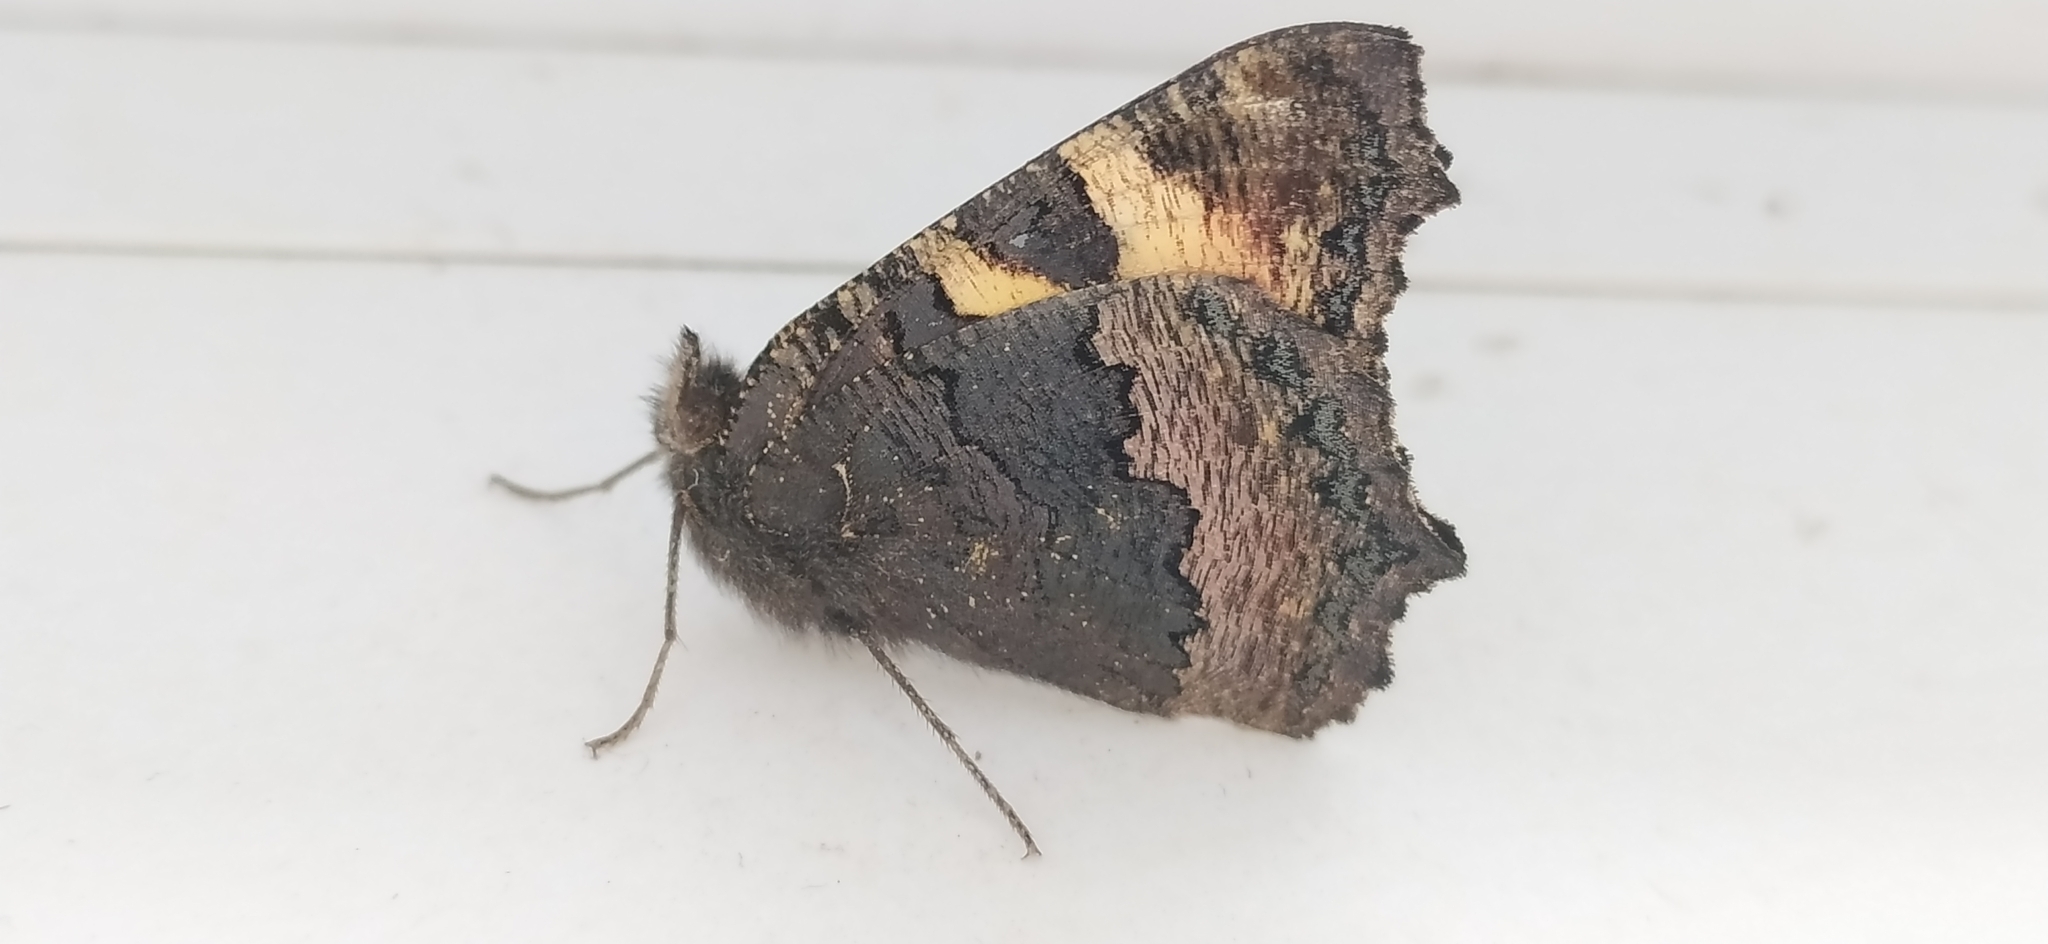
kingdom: Animalia
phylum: Arthropoda
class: Insecta
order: Lepidoptera
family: Nymphalidae
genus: Aglais
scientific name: Aglais urticae
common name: Small tortoiseshell
